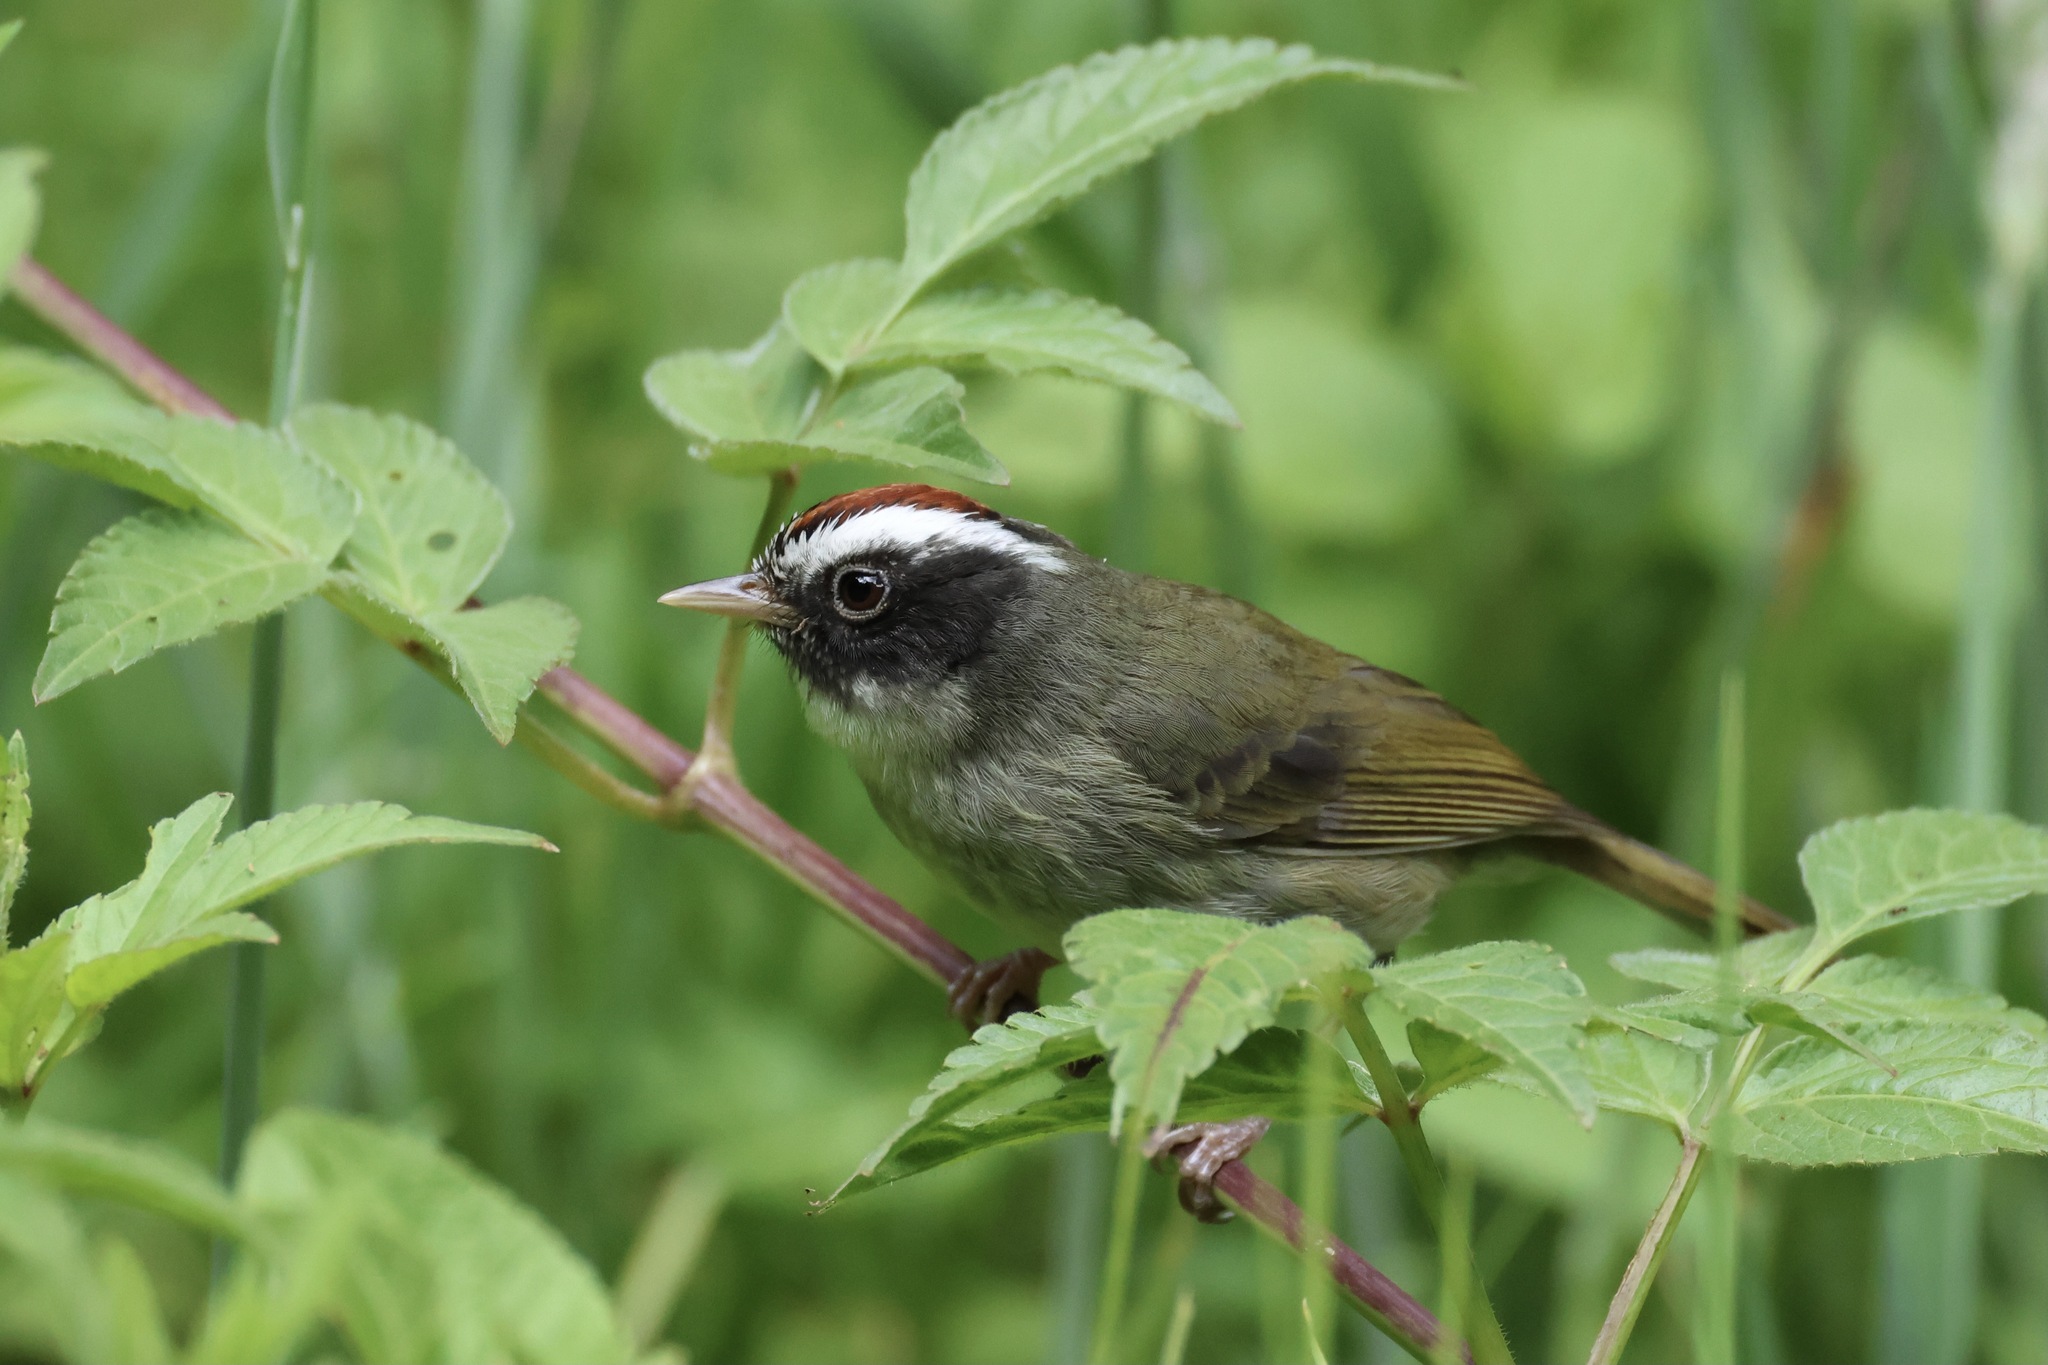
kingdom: Animalia
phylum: Chordata
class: Aves
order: Passeriformes
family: Parulidae
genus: Basileuterus
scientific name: Basileuterus melanogenys
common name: Black-cheeked warbler
